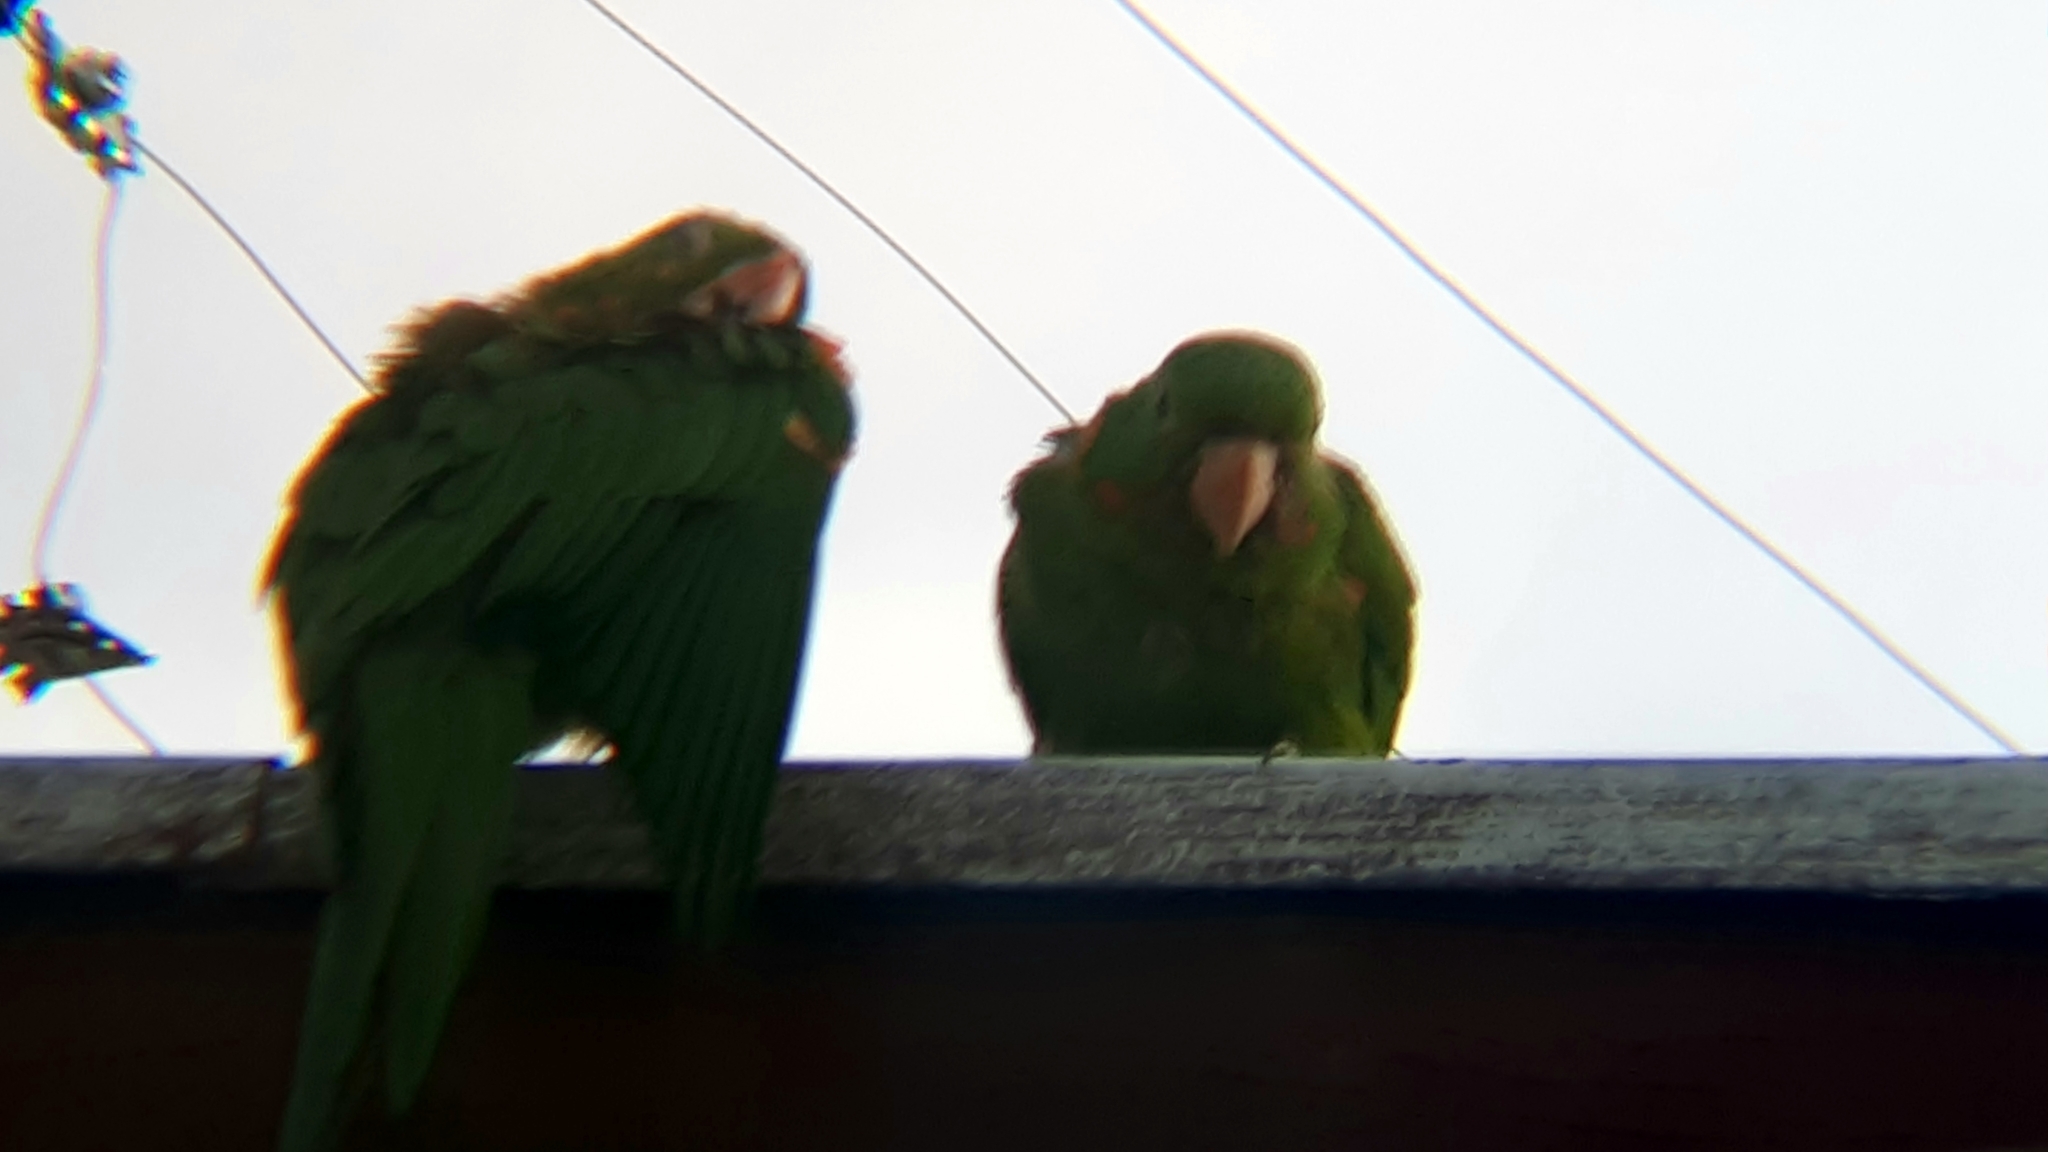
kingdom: Animalia
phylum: Chordata
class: Aves
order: Psittaciformes
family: Psittacidae
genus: Aratinga
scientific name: Aratinga leucophthalma
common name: White-eyed parakeet
